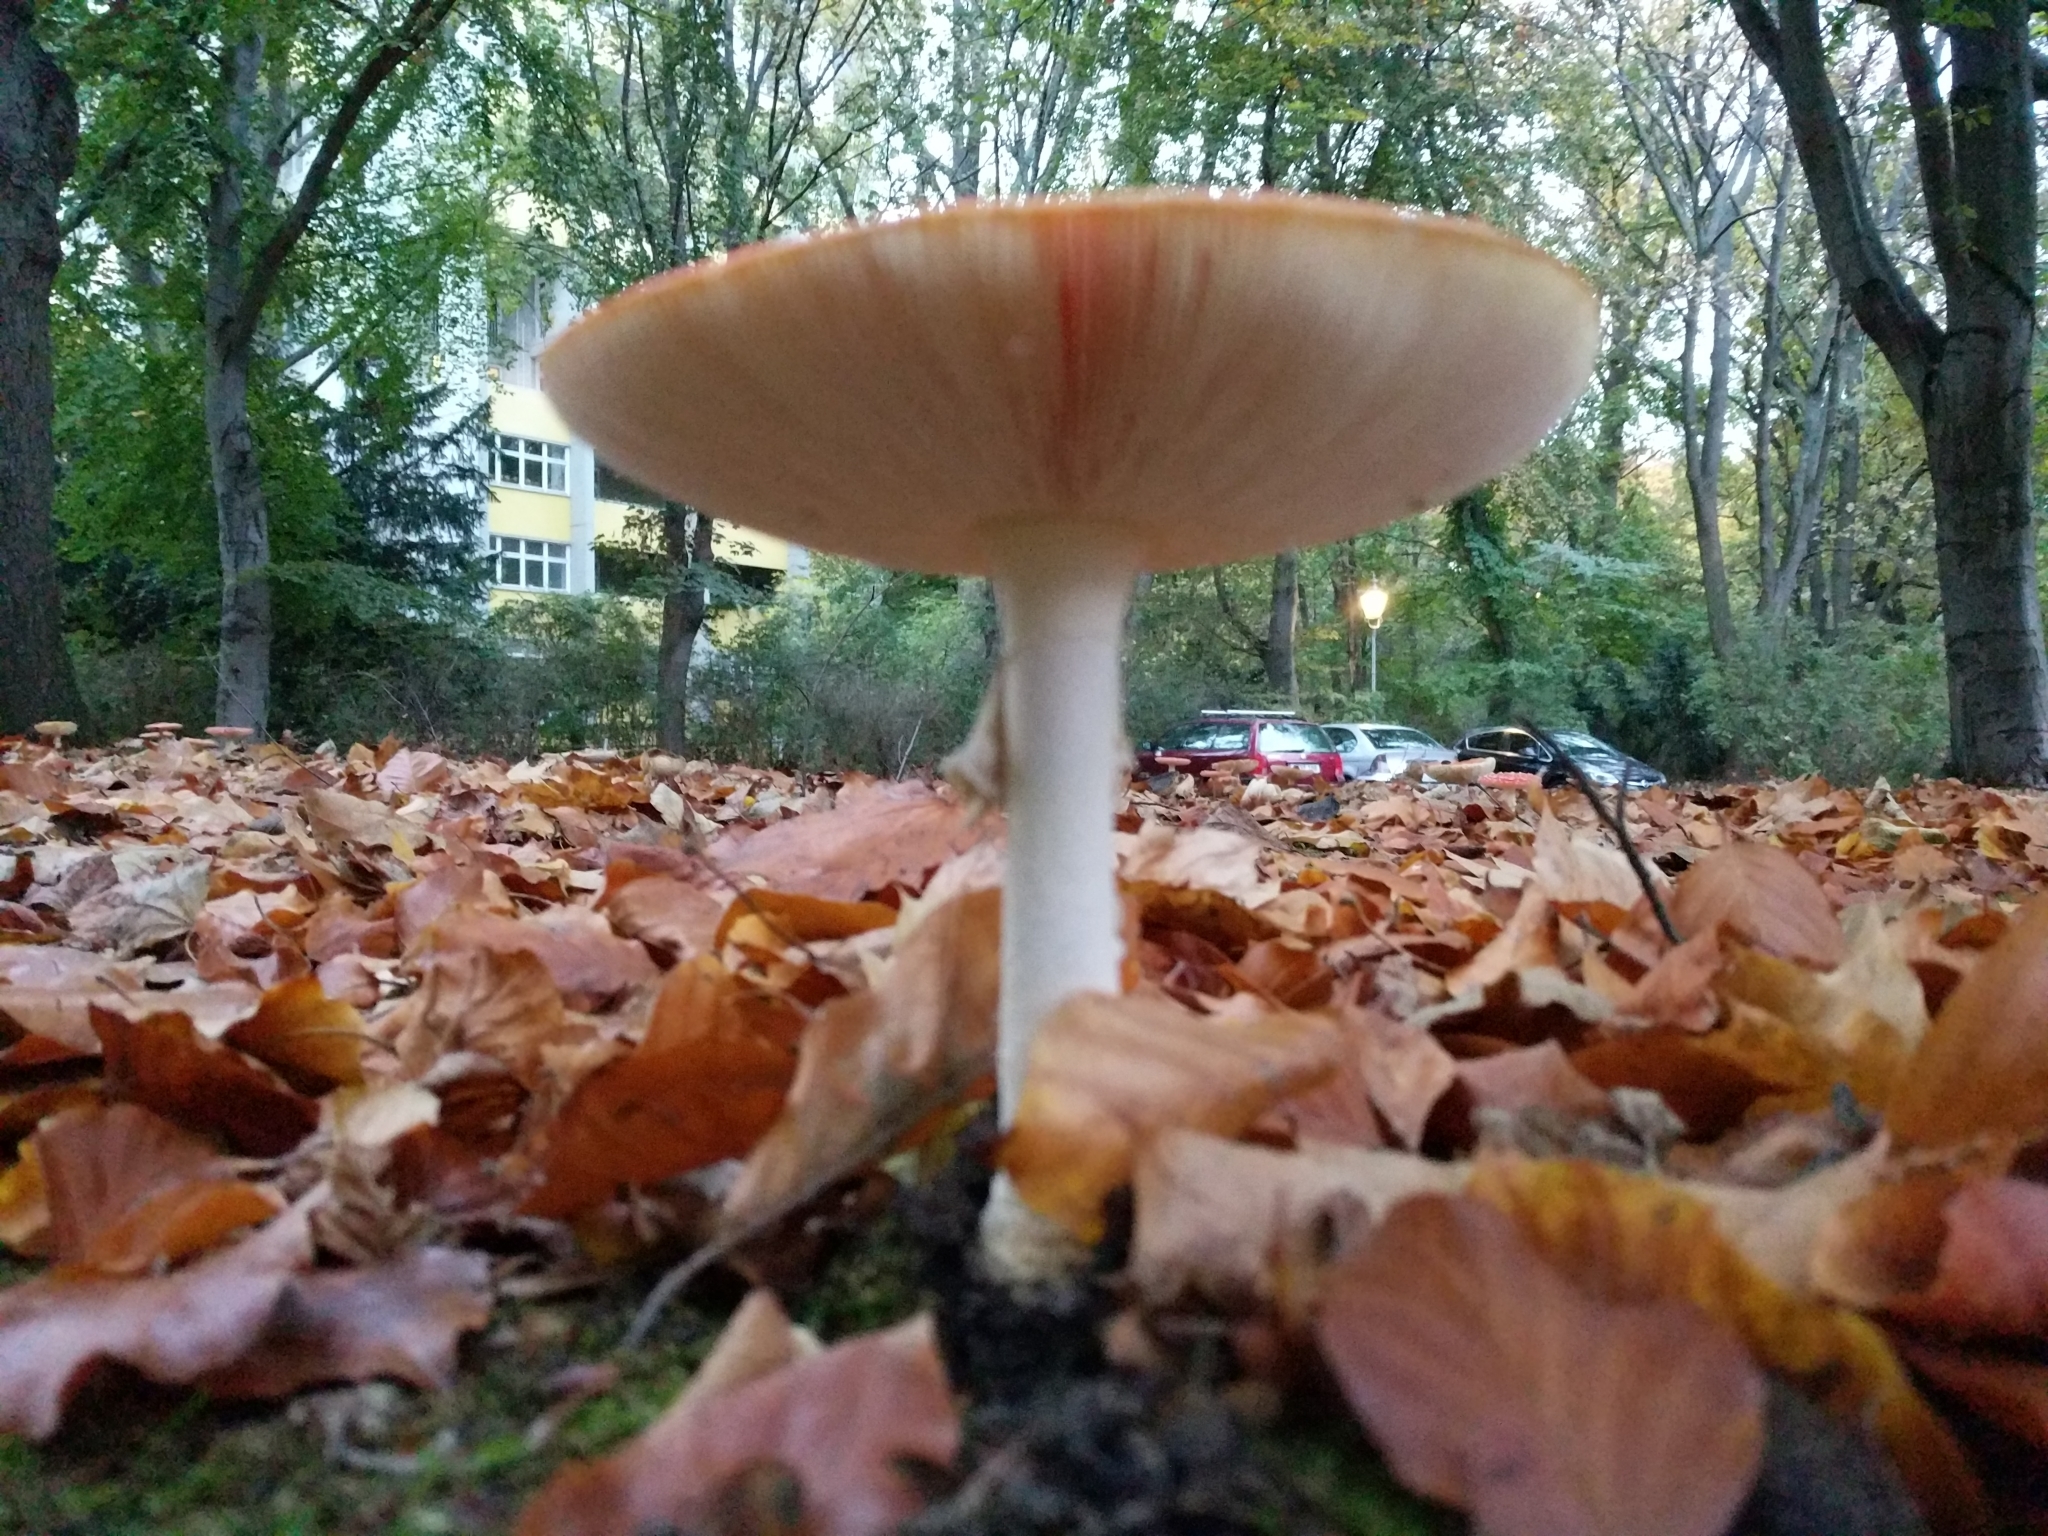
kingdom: Fungi
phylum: Basidiomycota
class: Agaricomycetes
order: Agaricales
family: Amanitaceae
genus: Amanita
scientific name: Amanita muscaria
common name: Fly agaric
